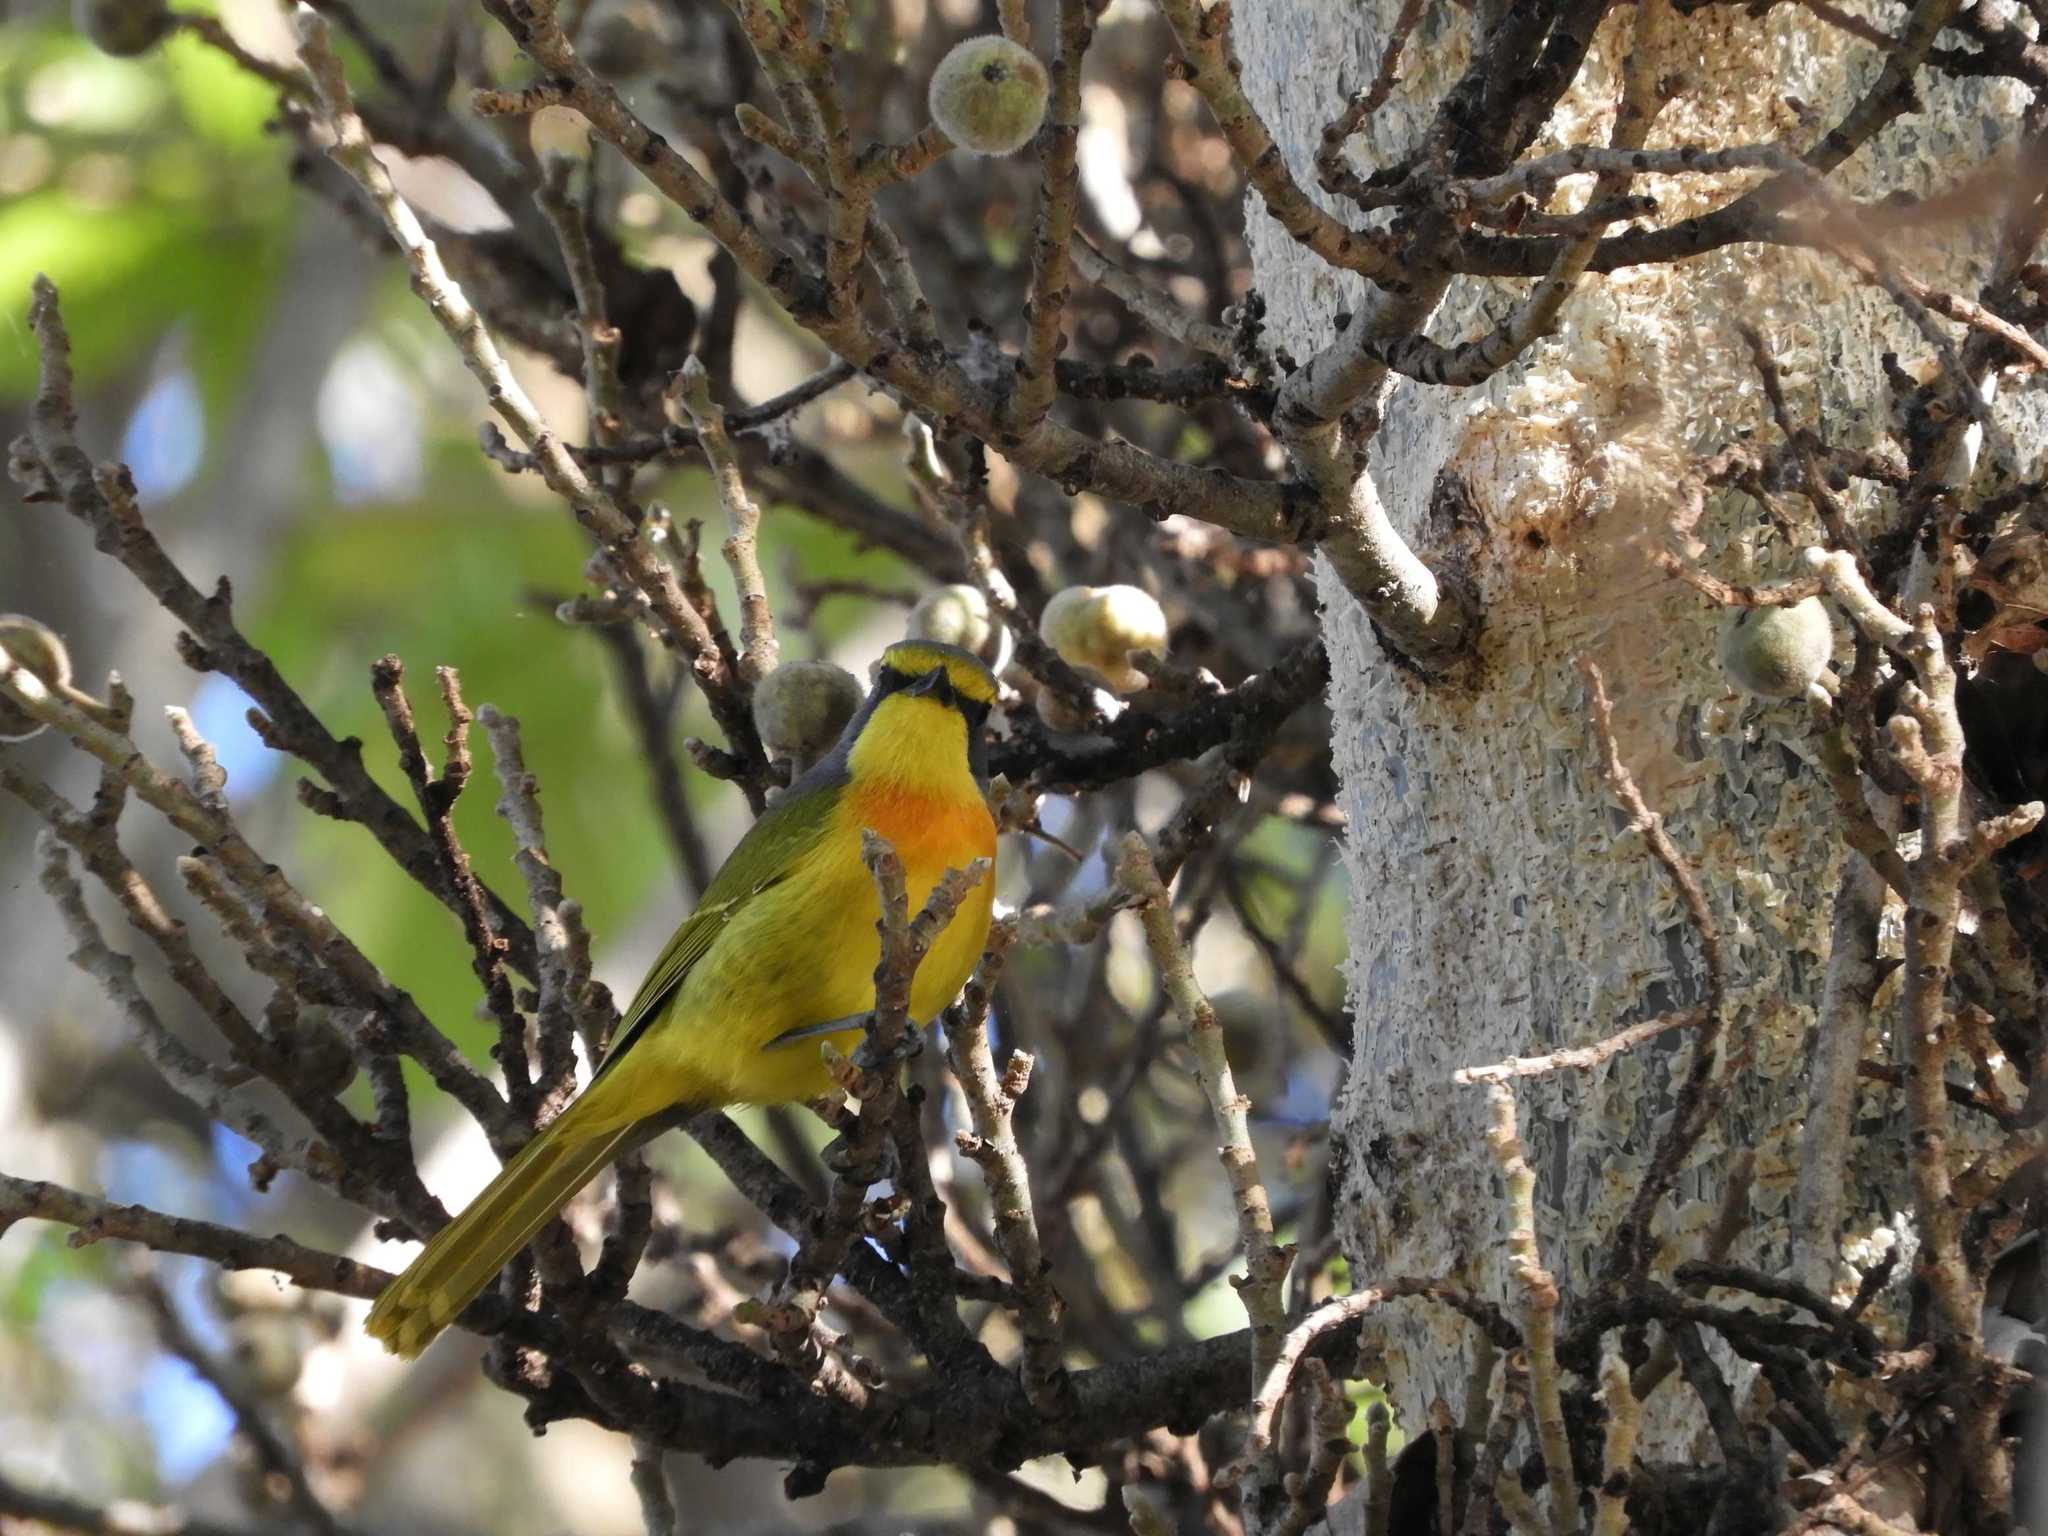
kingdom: Animalia
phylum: Chordata
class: Aves
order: Passeriformes
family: Malaconotidae
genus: Chlorophoneus
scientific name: Chlorophoneus sulfureopectus
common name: Orange-breasted bushshrike
